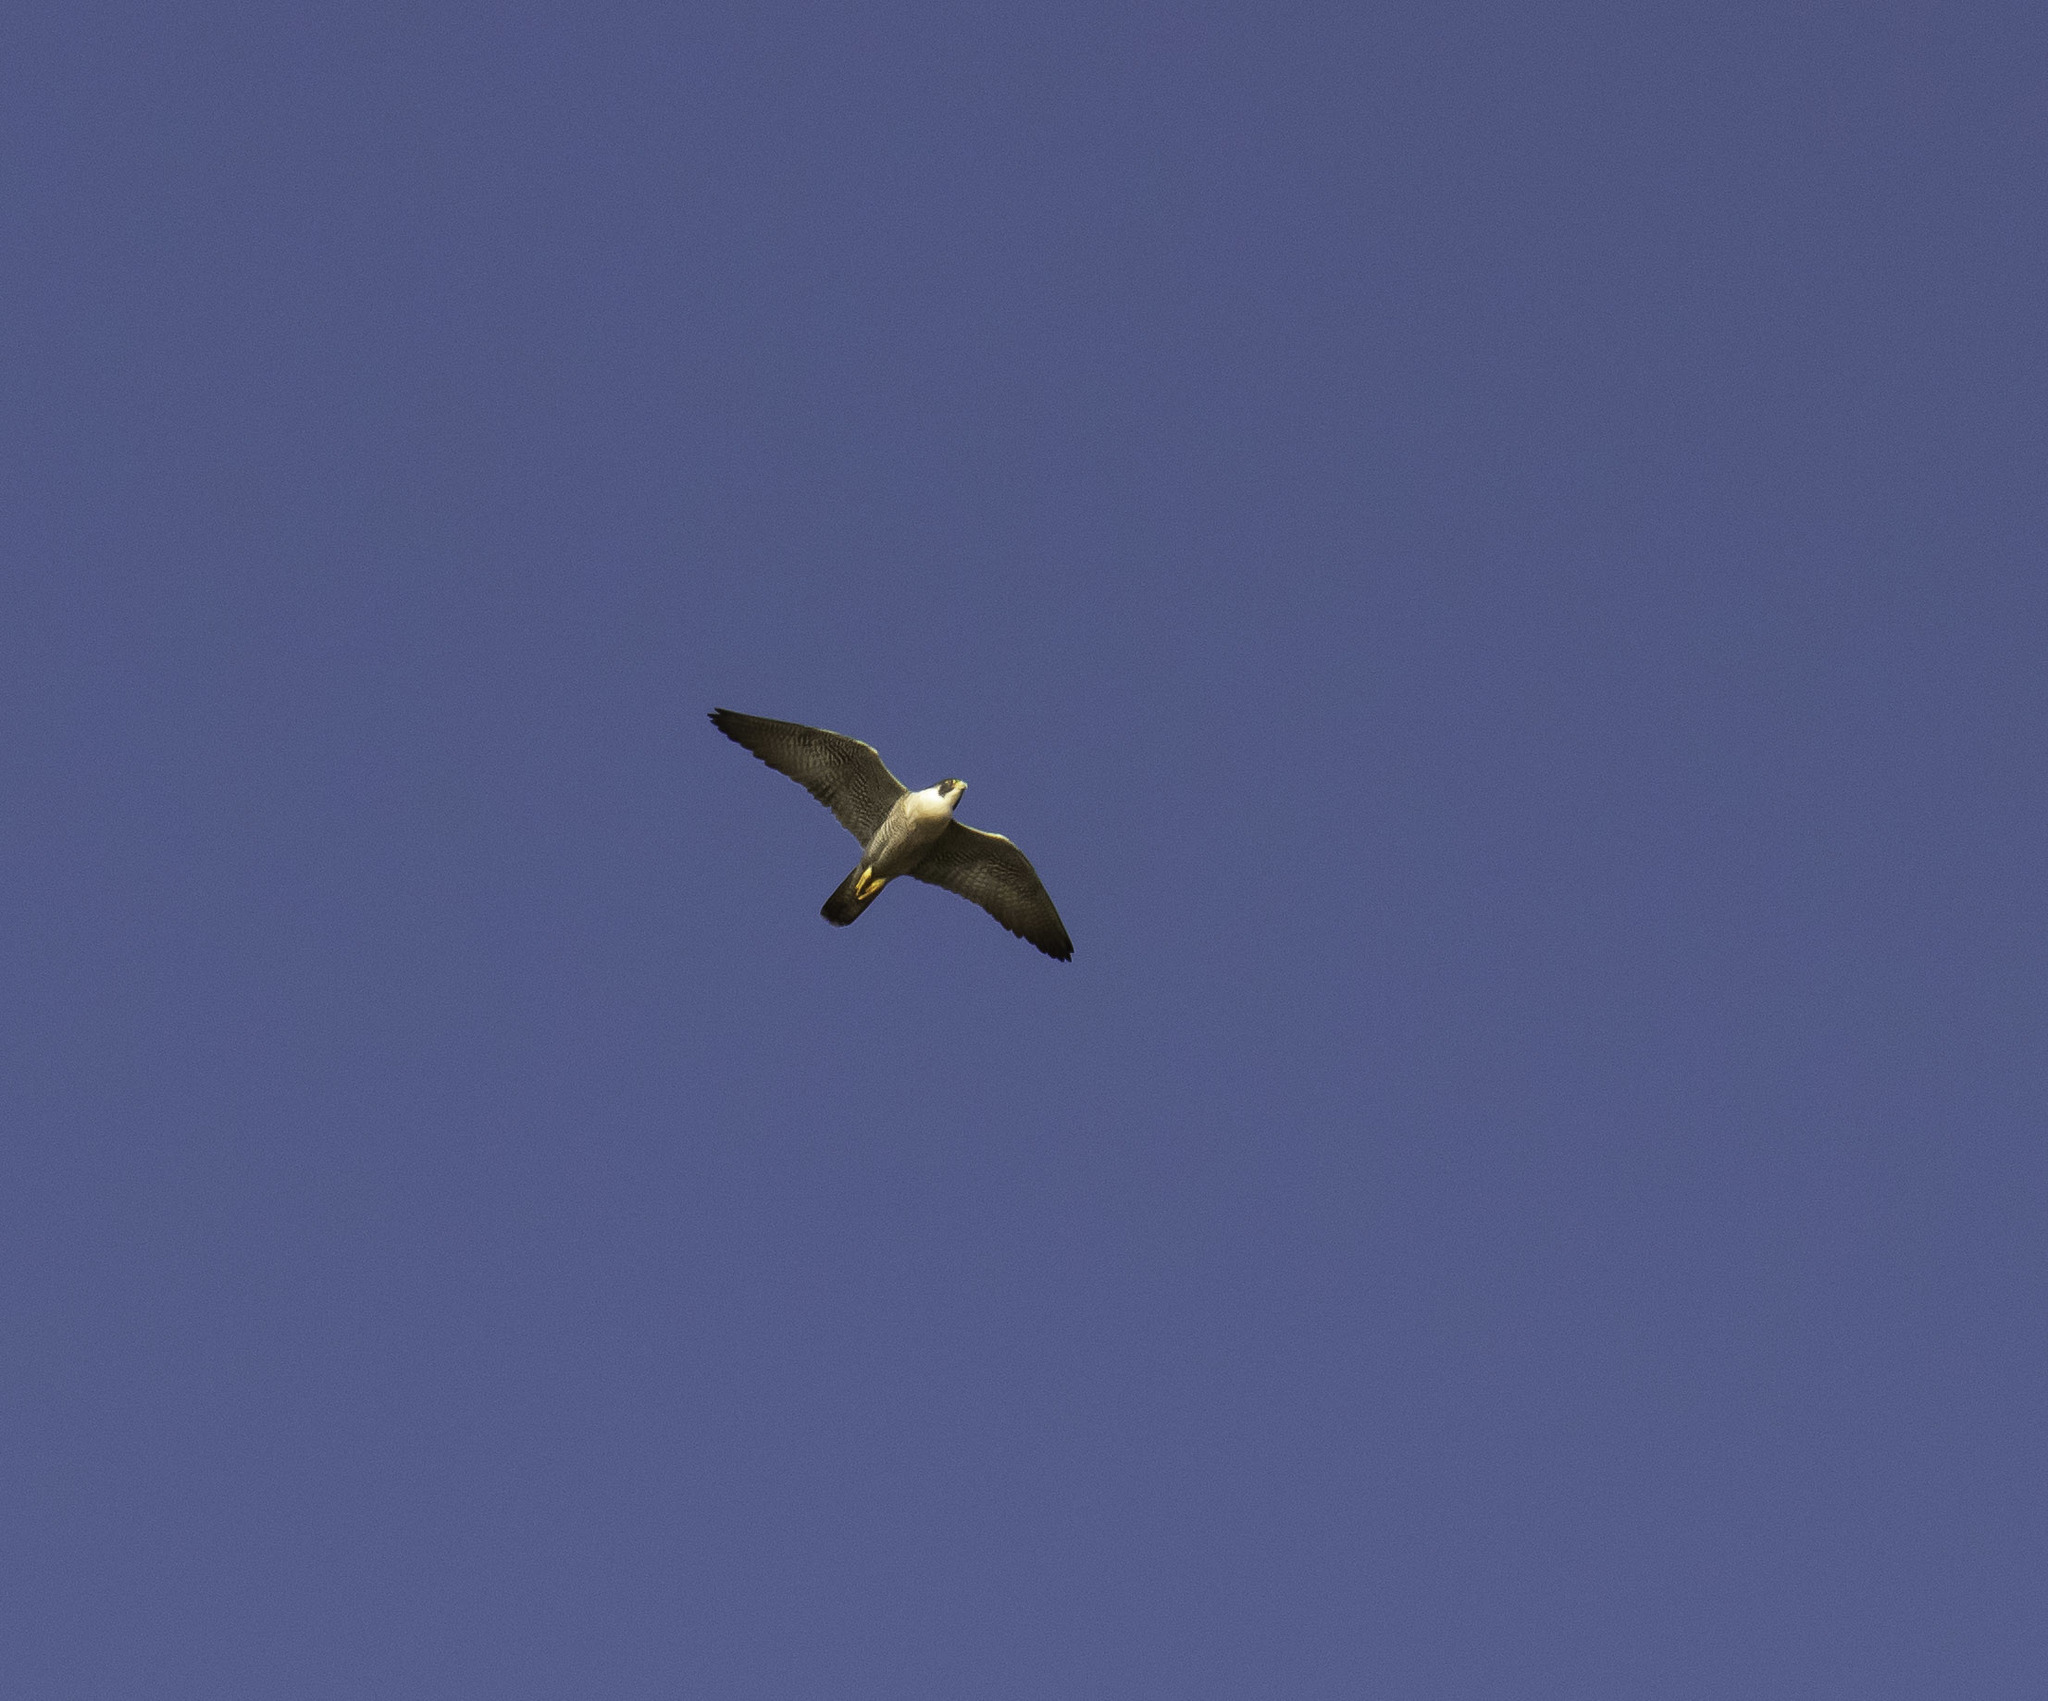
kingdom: Animalia
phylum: Chordata
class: Aves
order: Falconiformes
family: Falconidae
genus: Falco
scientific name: Falco peregrinus
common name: Peregrine falcon
